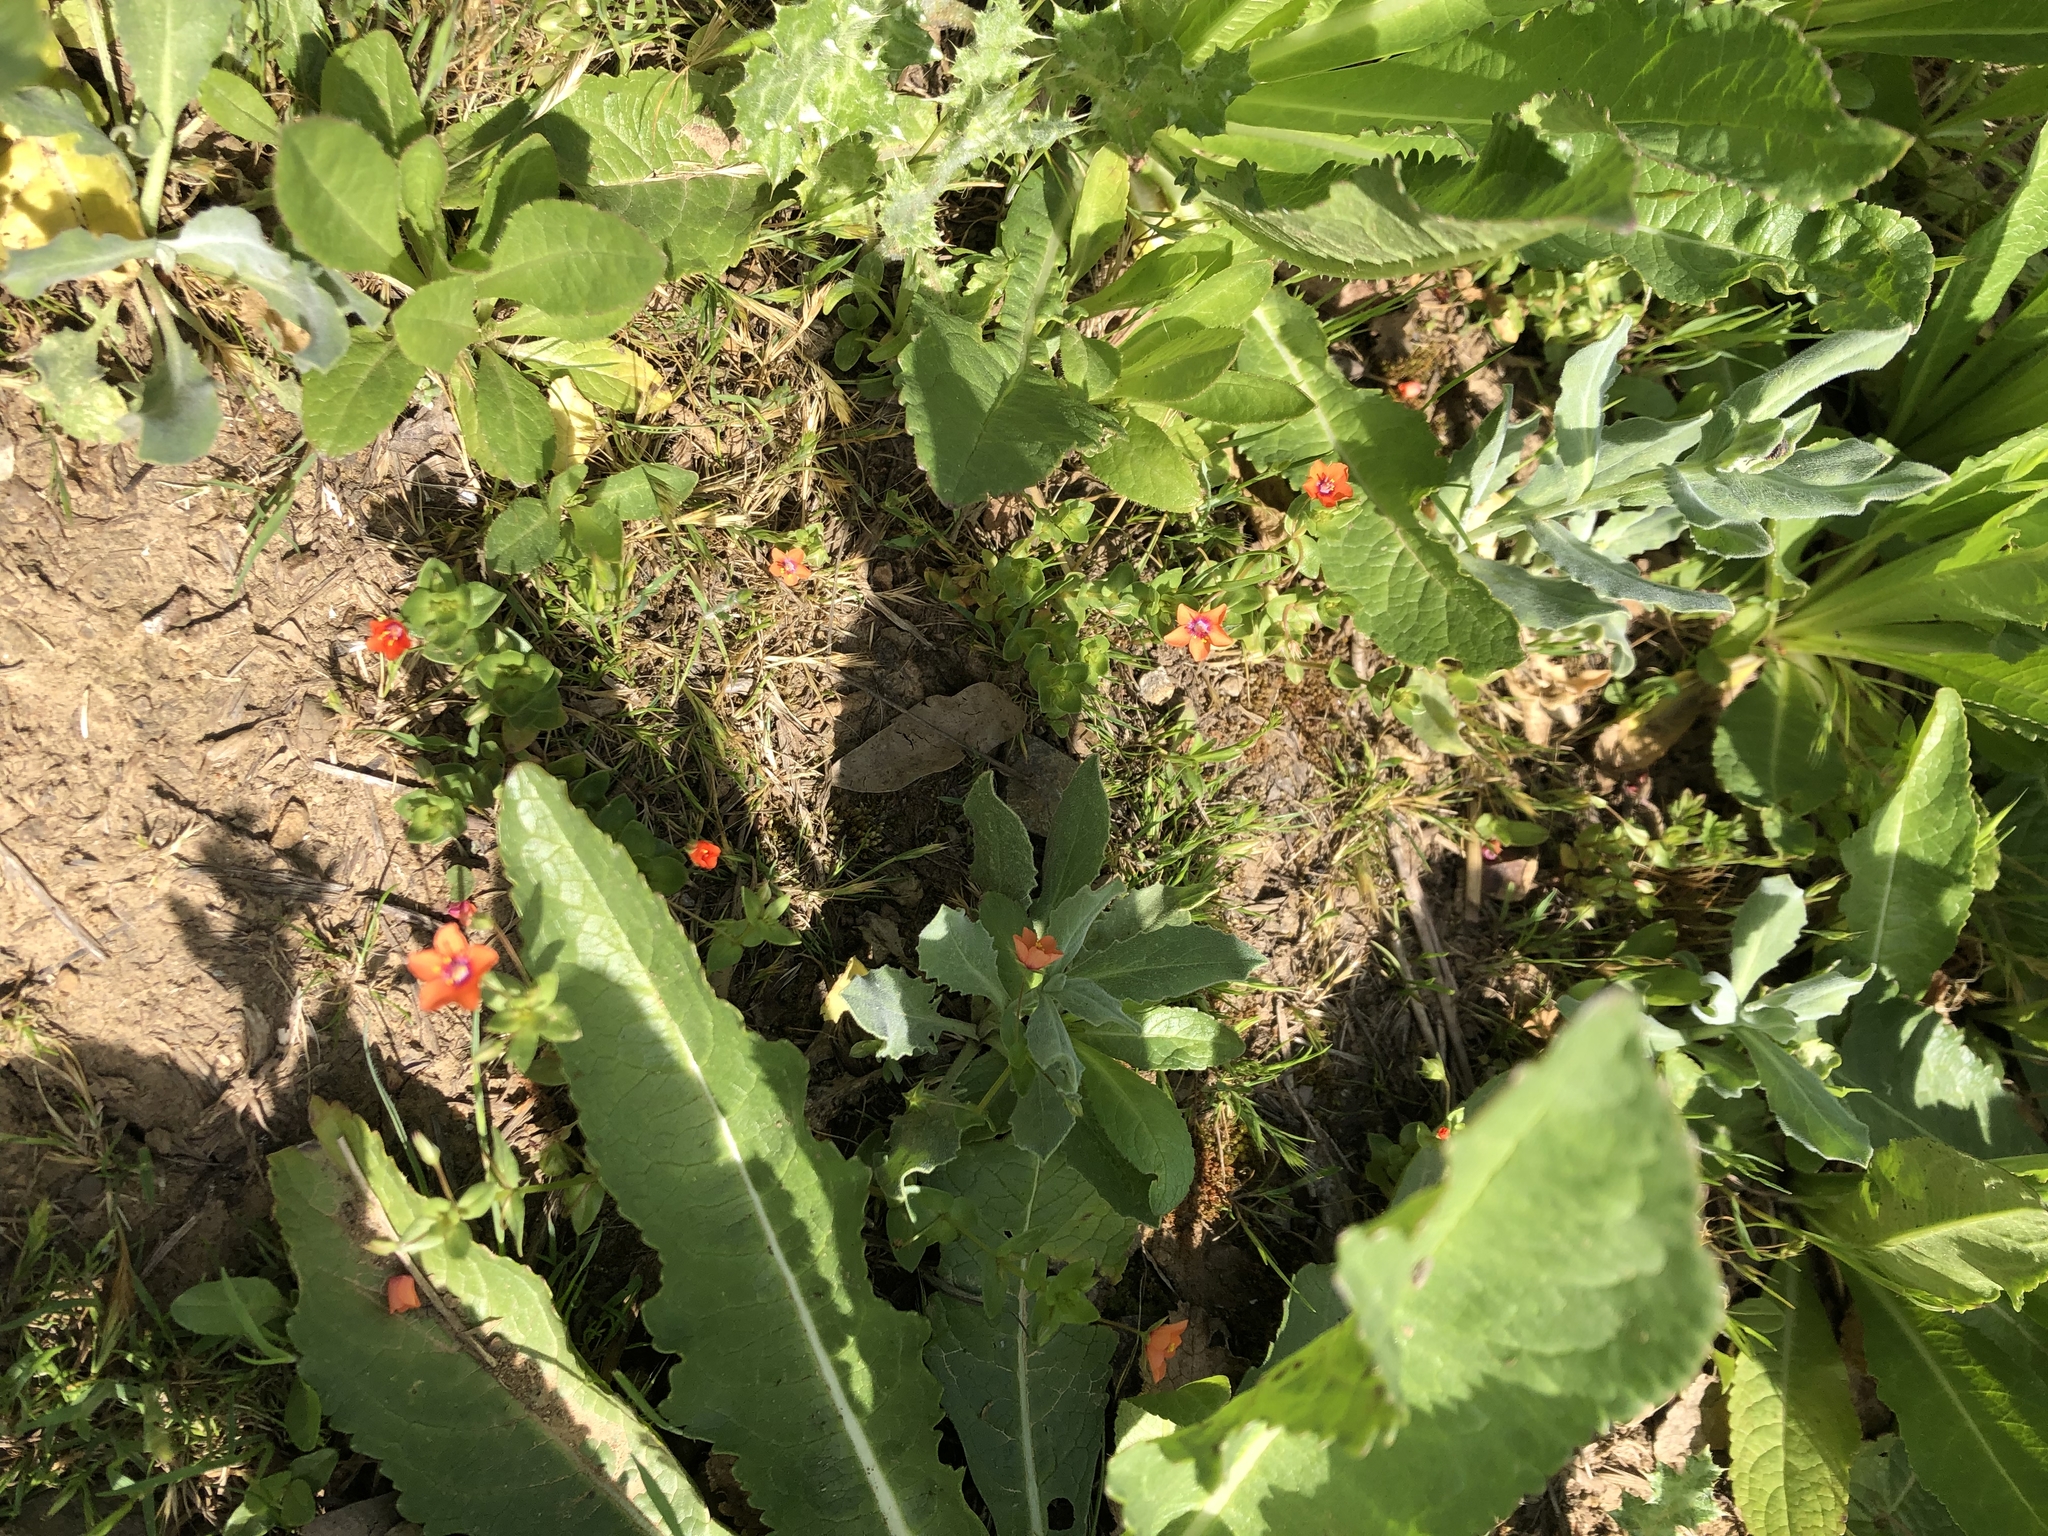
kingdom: Plantae
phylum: Tracheophyta
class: Magnoliopsida
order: Ericales
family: Primulaceae
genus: Lysimachia
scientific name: Lysimachia arvensis
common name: Scarlet pimpernel
